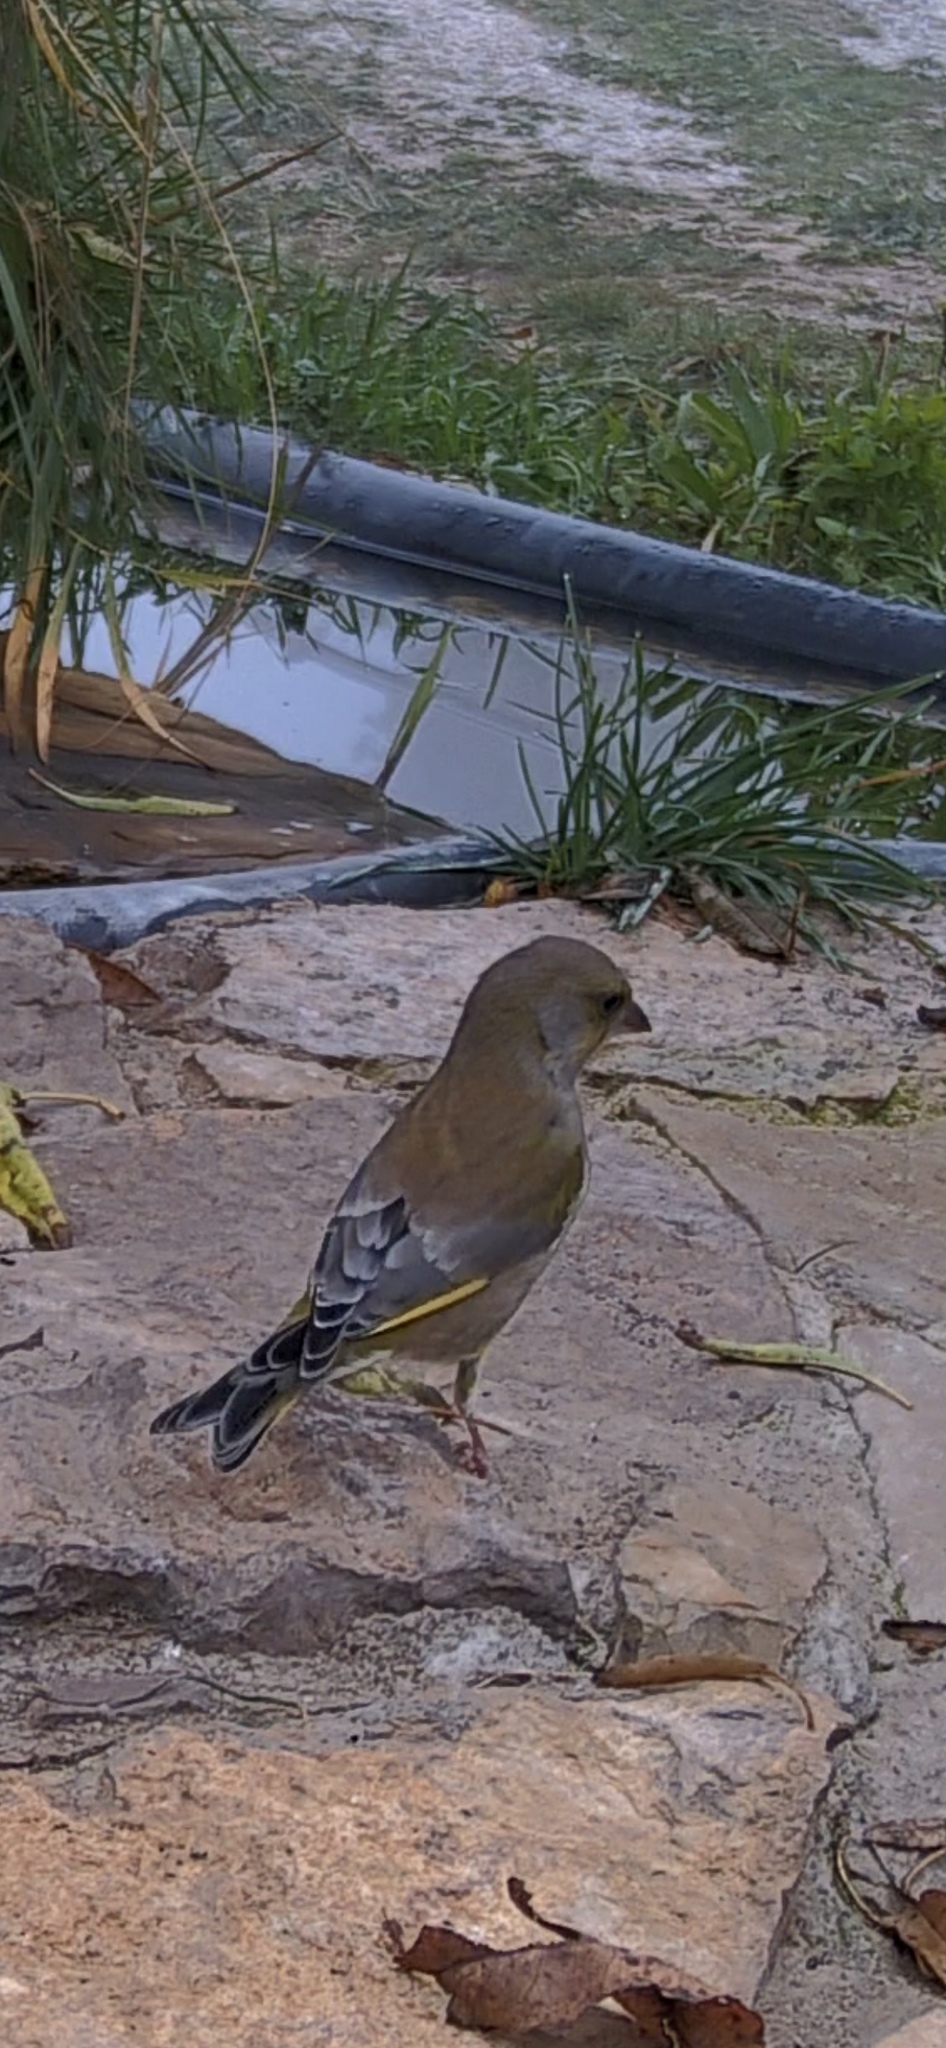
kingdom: Plantae
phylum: Tracheophyta
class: Liliopsida
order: Poales
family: Poaceae
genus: Chloris
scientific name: Chloris chloris
